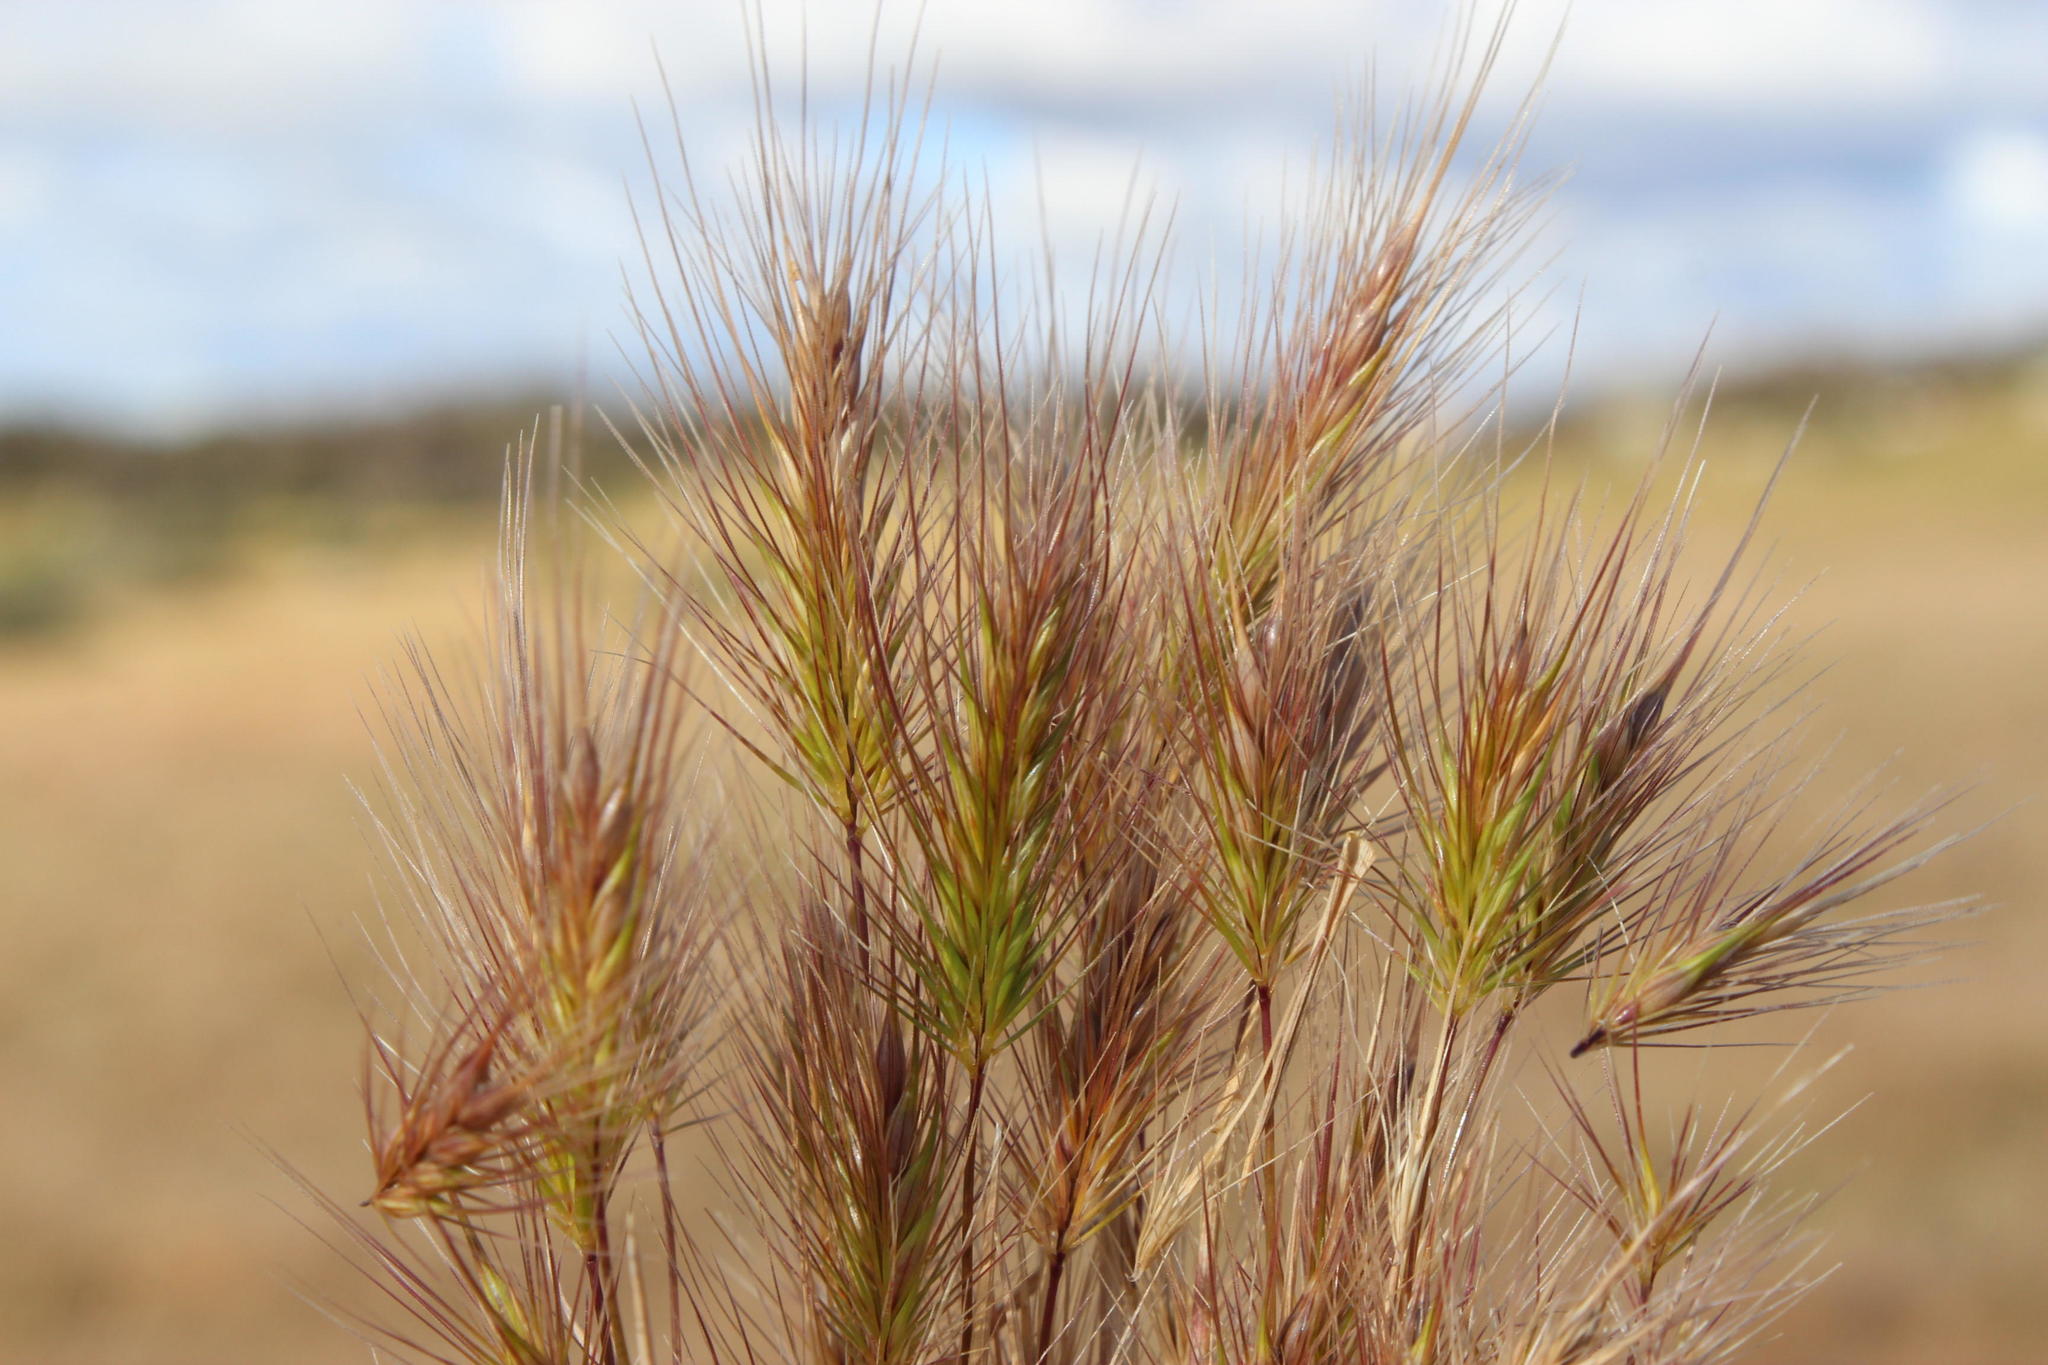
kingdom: Plantae
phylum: Tracheophyta
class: Liliopsida
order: Poales
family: Poaceae
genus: Hordeum
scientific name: Hordeum geniculatum
